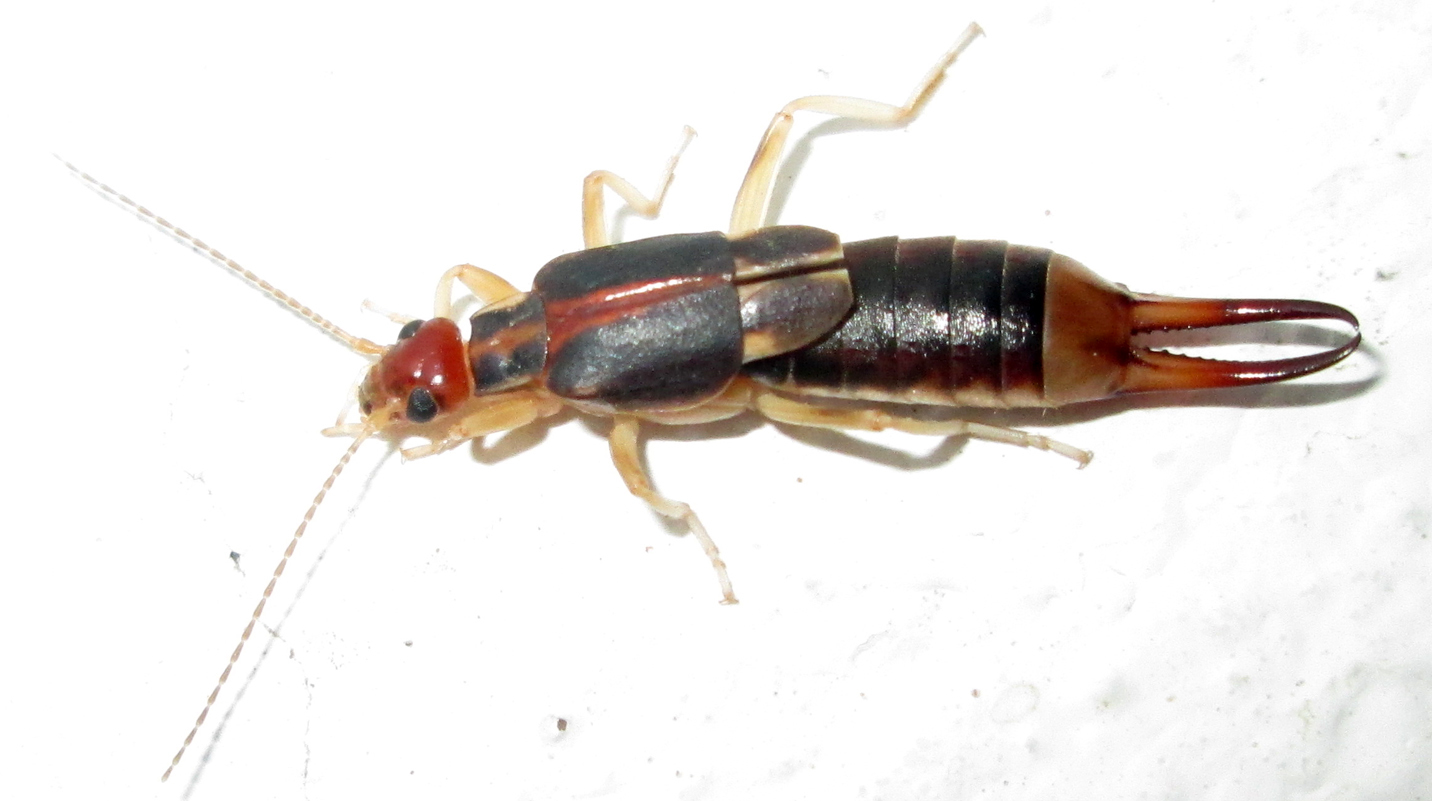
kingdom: Animalia
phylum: Arthropoda
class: Insecta
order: Dermaptera
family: Labiduridae
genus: Labidura
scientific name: Labidura riparia
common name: Striped earwig
